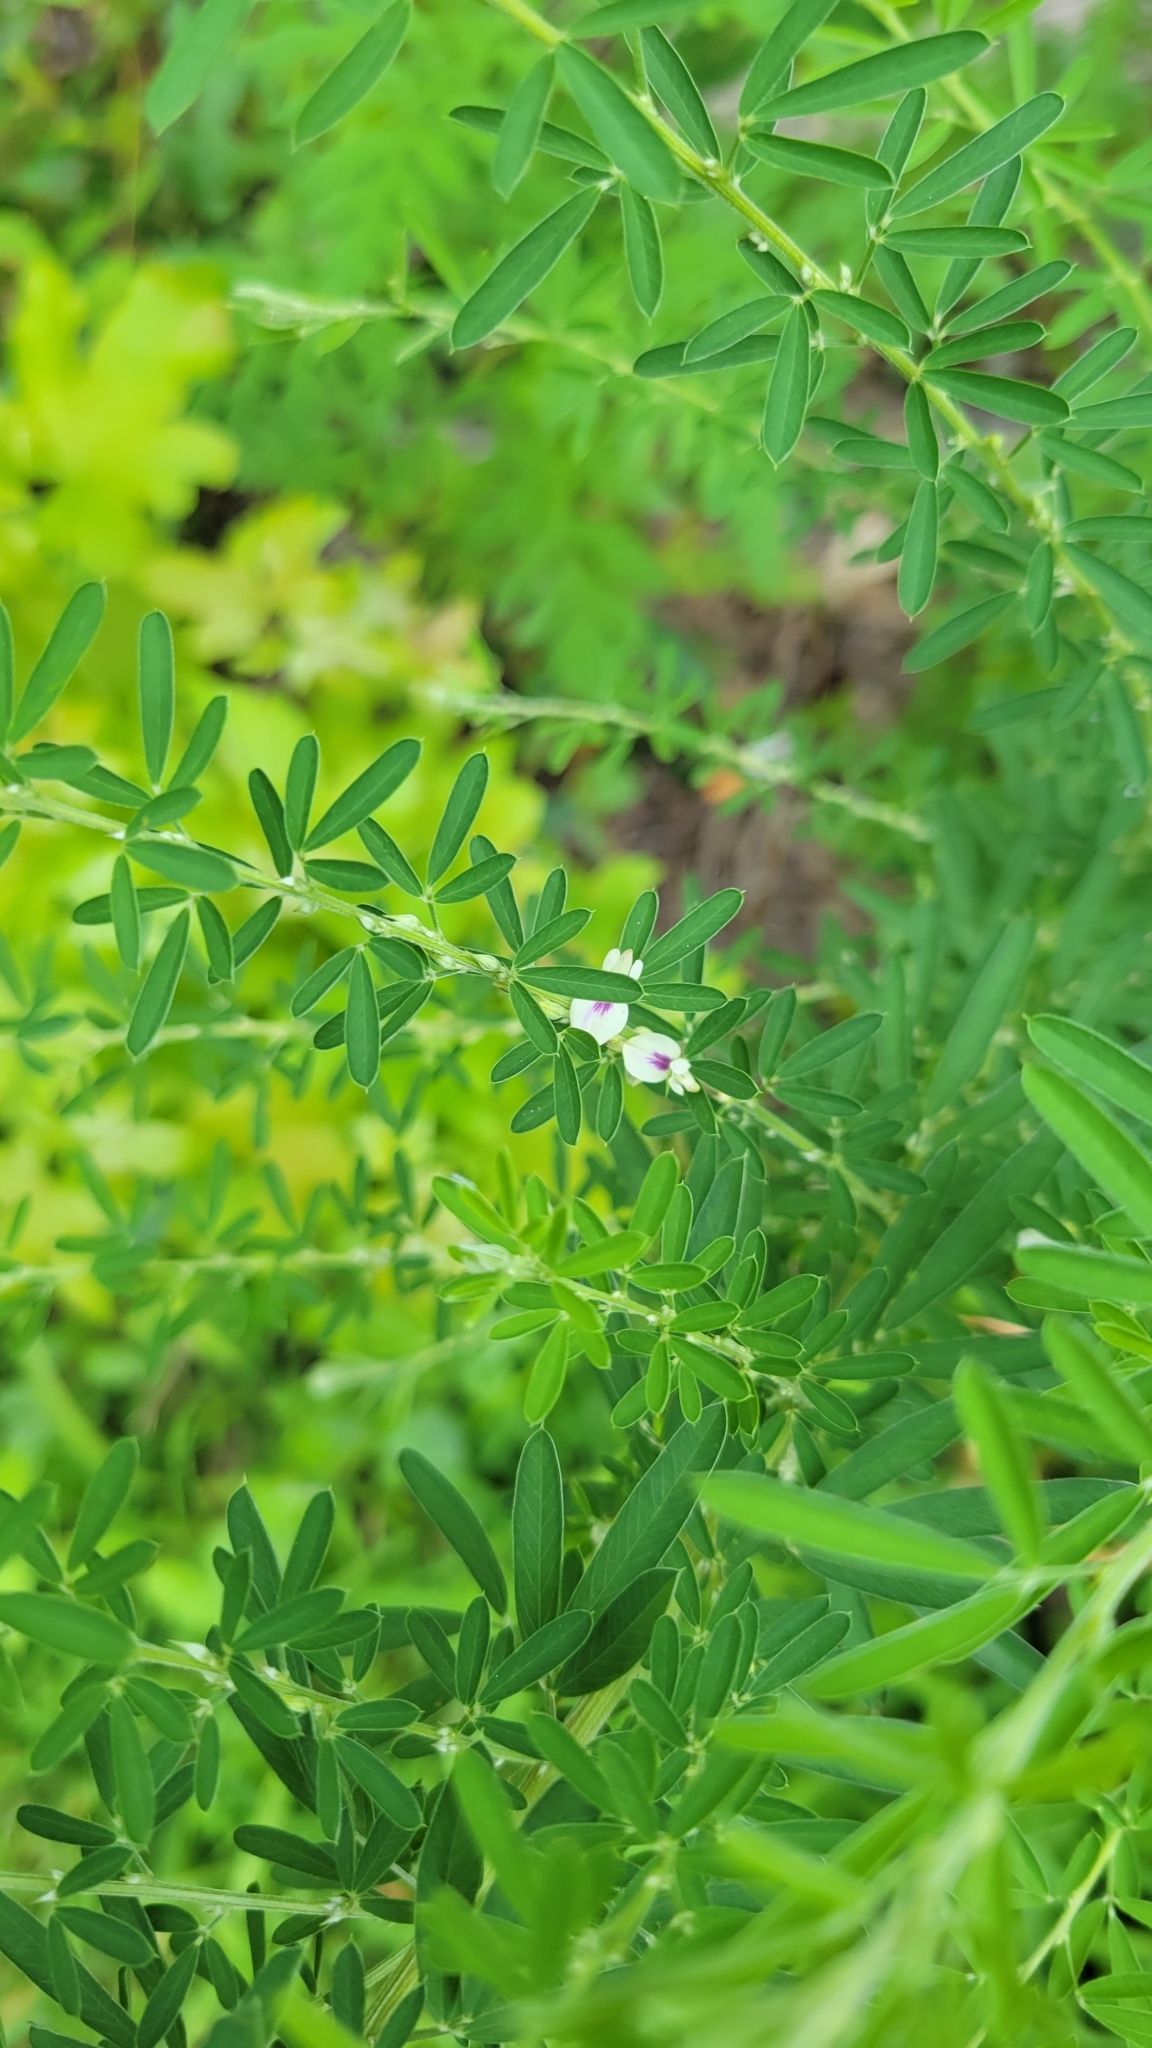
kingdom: Plantae
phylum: Tracheophyta
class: Magnoliopsida
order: Fabales
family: Fabaceae
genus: Lespedeza
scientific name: Lespedeza cuneata
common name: Chinese bush-clover
